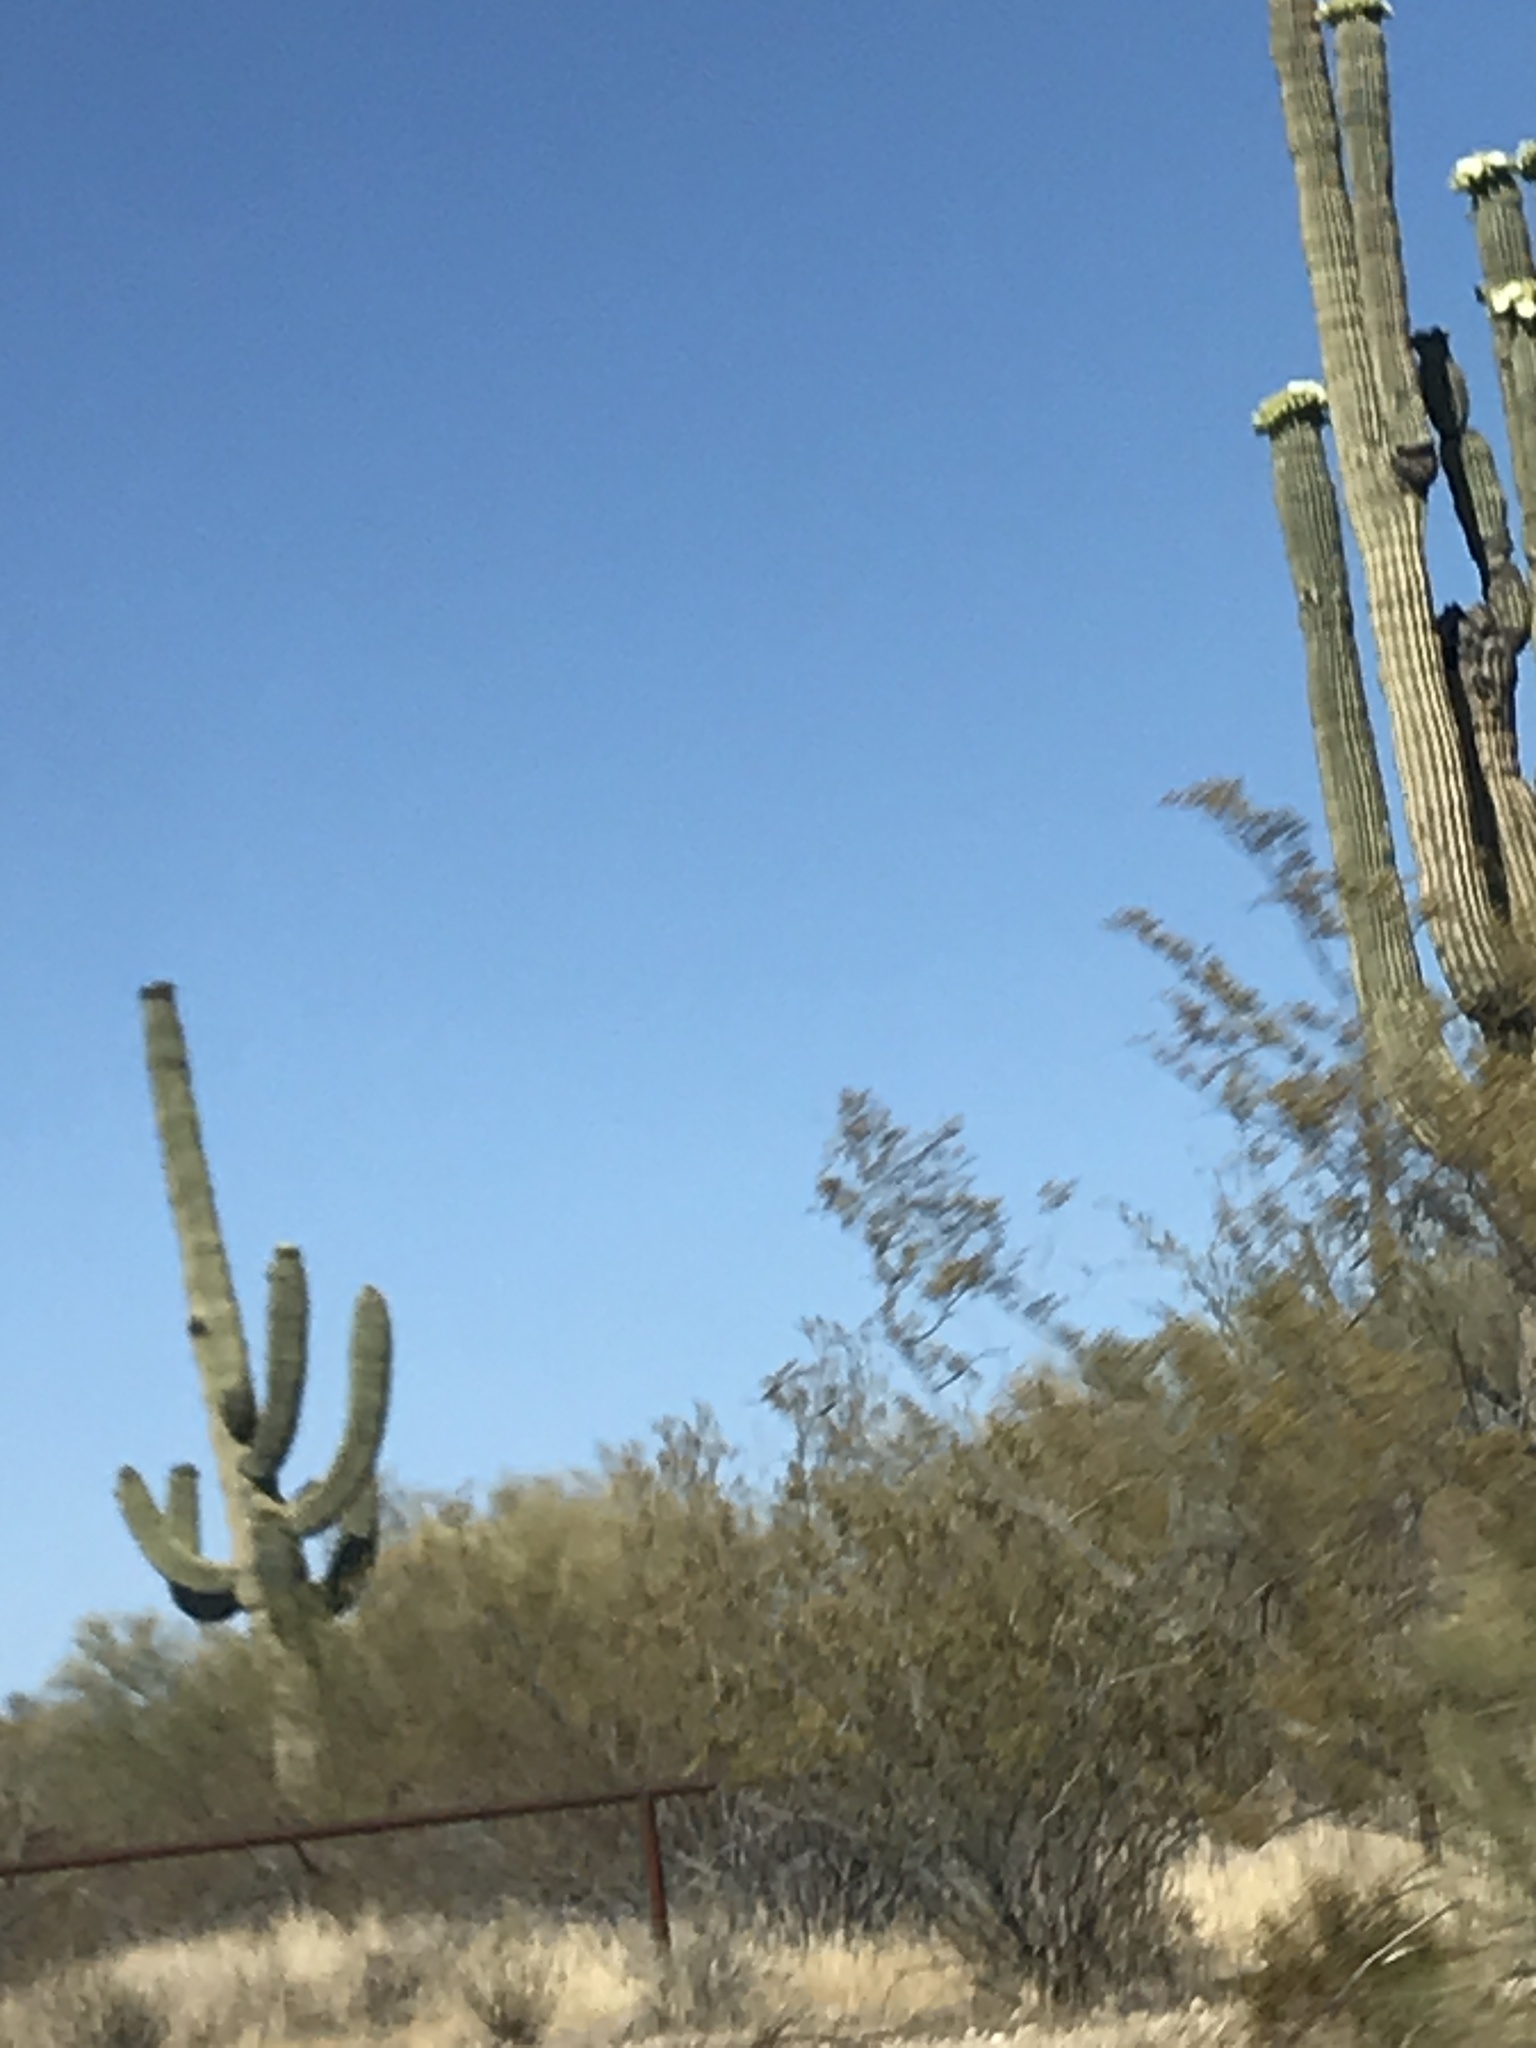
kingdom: Plantae
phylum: Tracheophyta
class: Magnoliopsida
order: Caryophyllales
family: Cactaceae
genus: Carnegiea
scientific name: Carnegiea gigantea
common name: Saguaro
